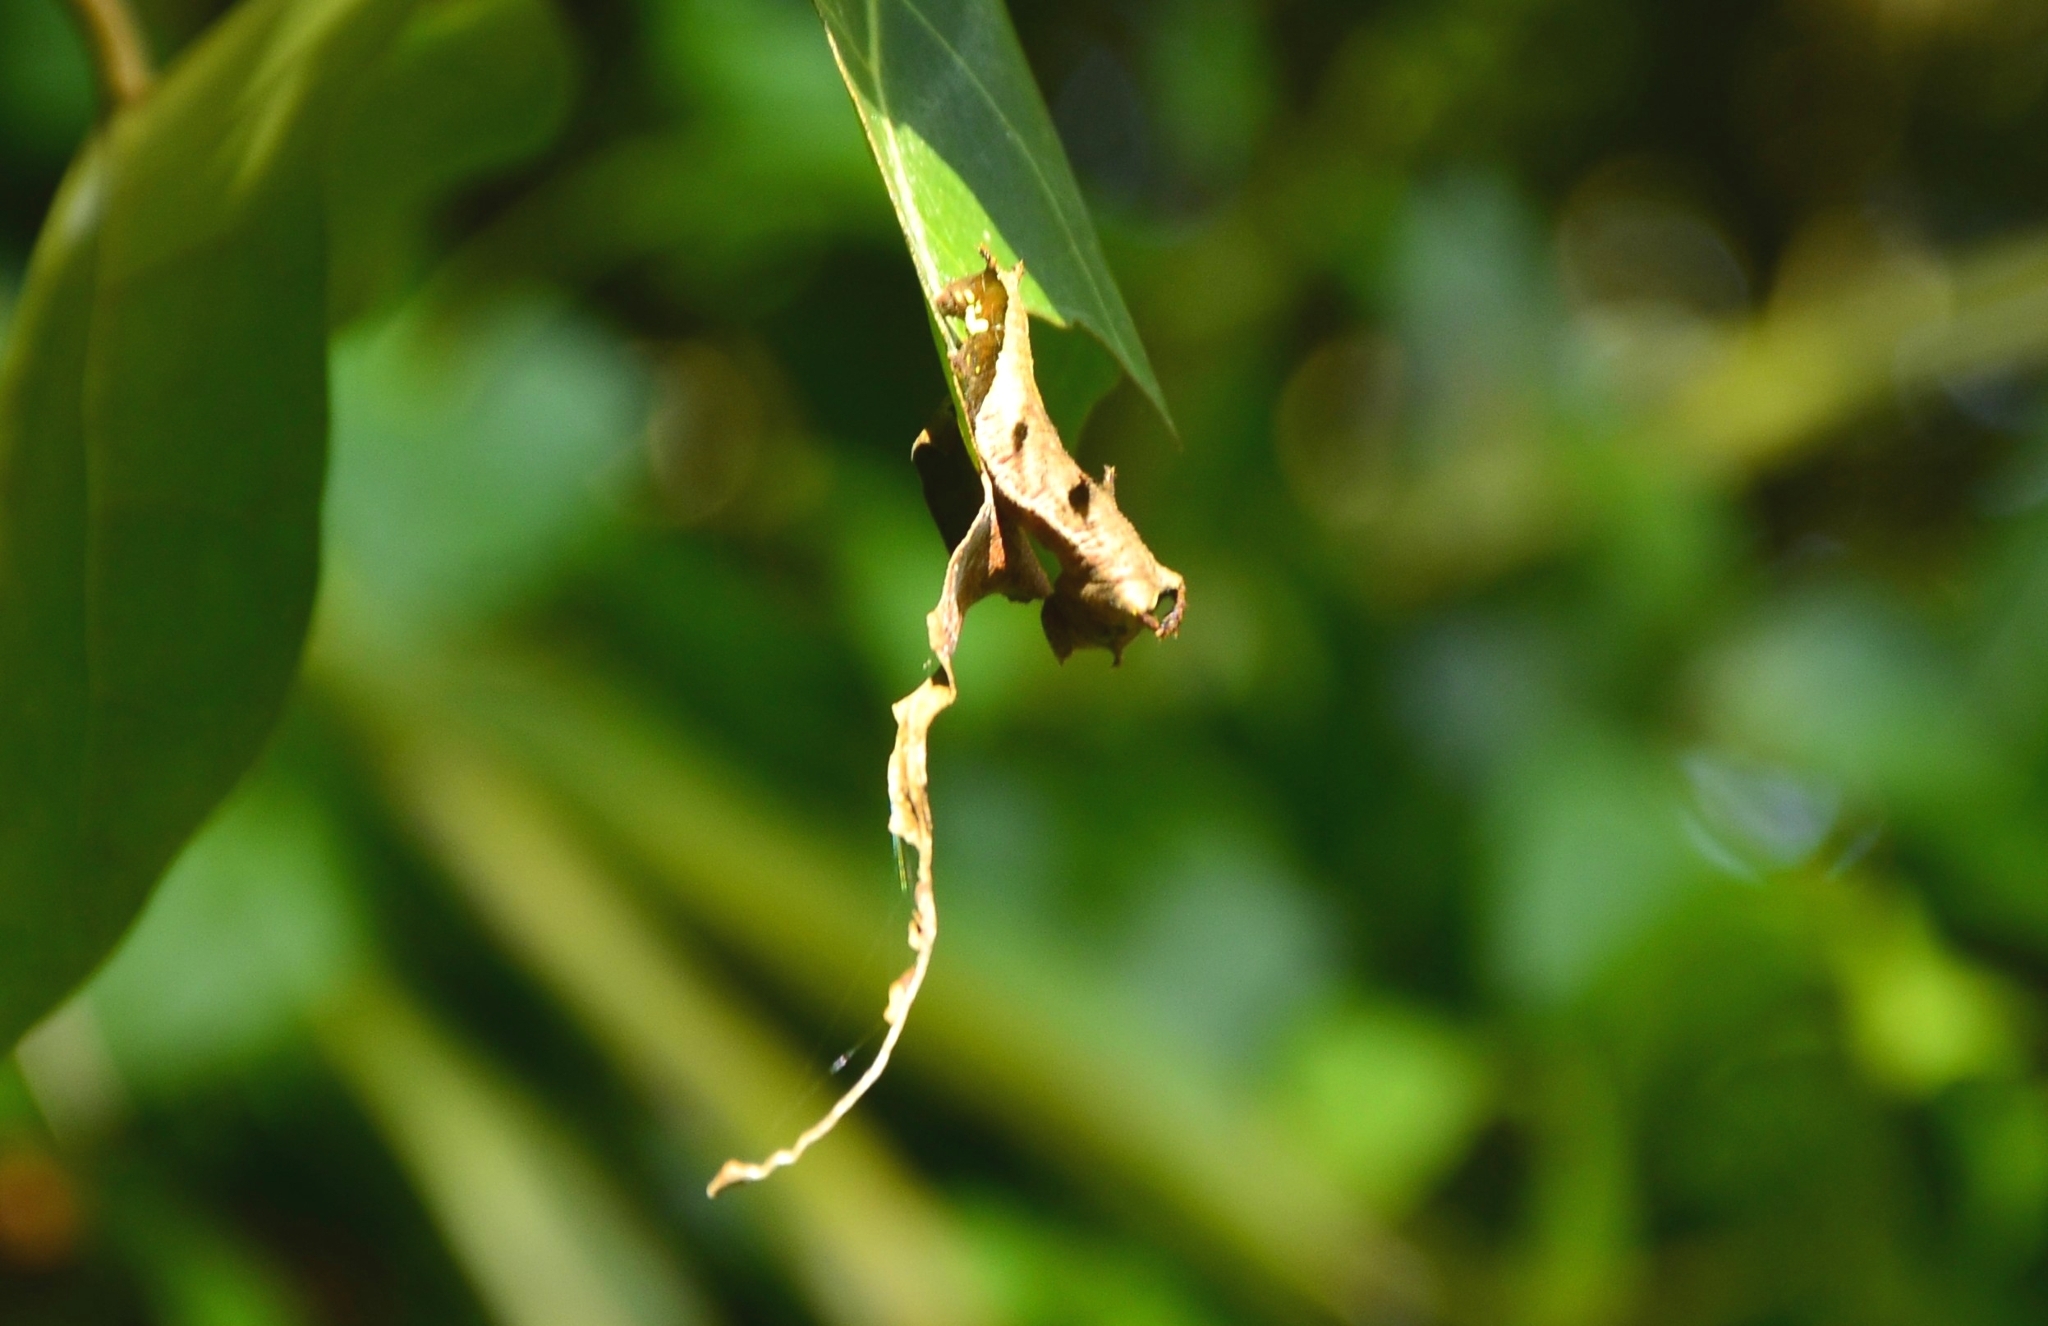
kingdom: Animalia
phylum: Arthropoda
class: Insecta
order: Lepidoptera
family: Nymphalidae
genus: Neptis
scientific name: Neptis jumbah
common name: Chestnut-streaked sailer
